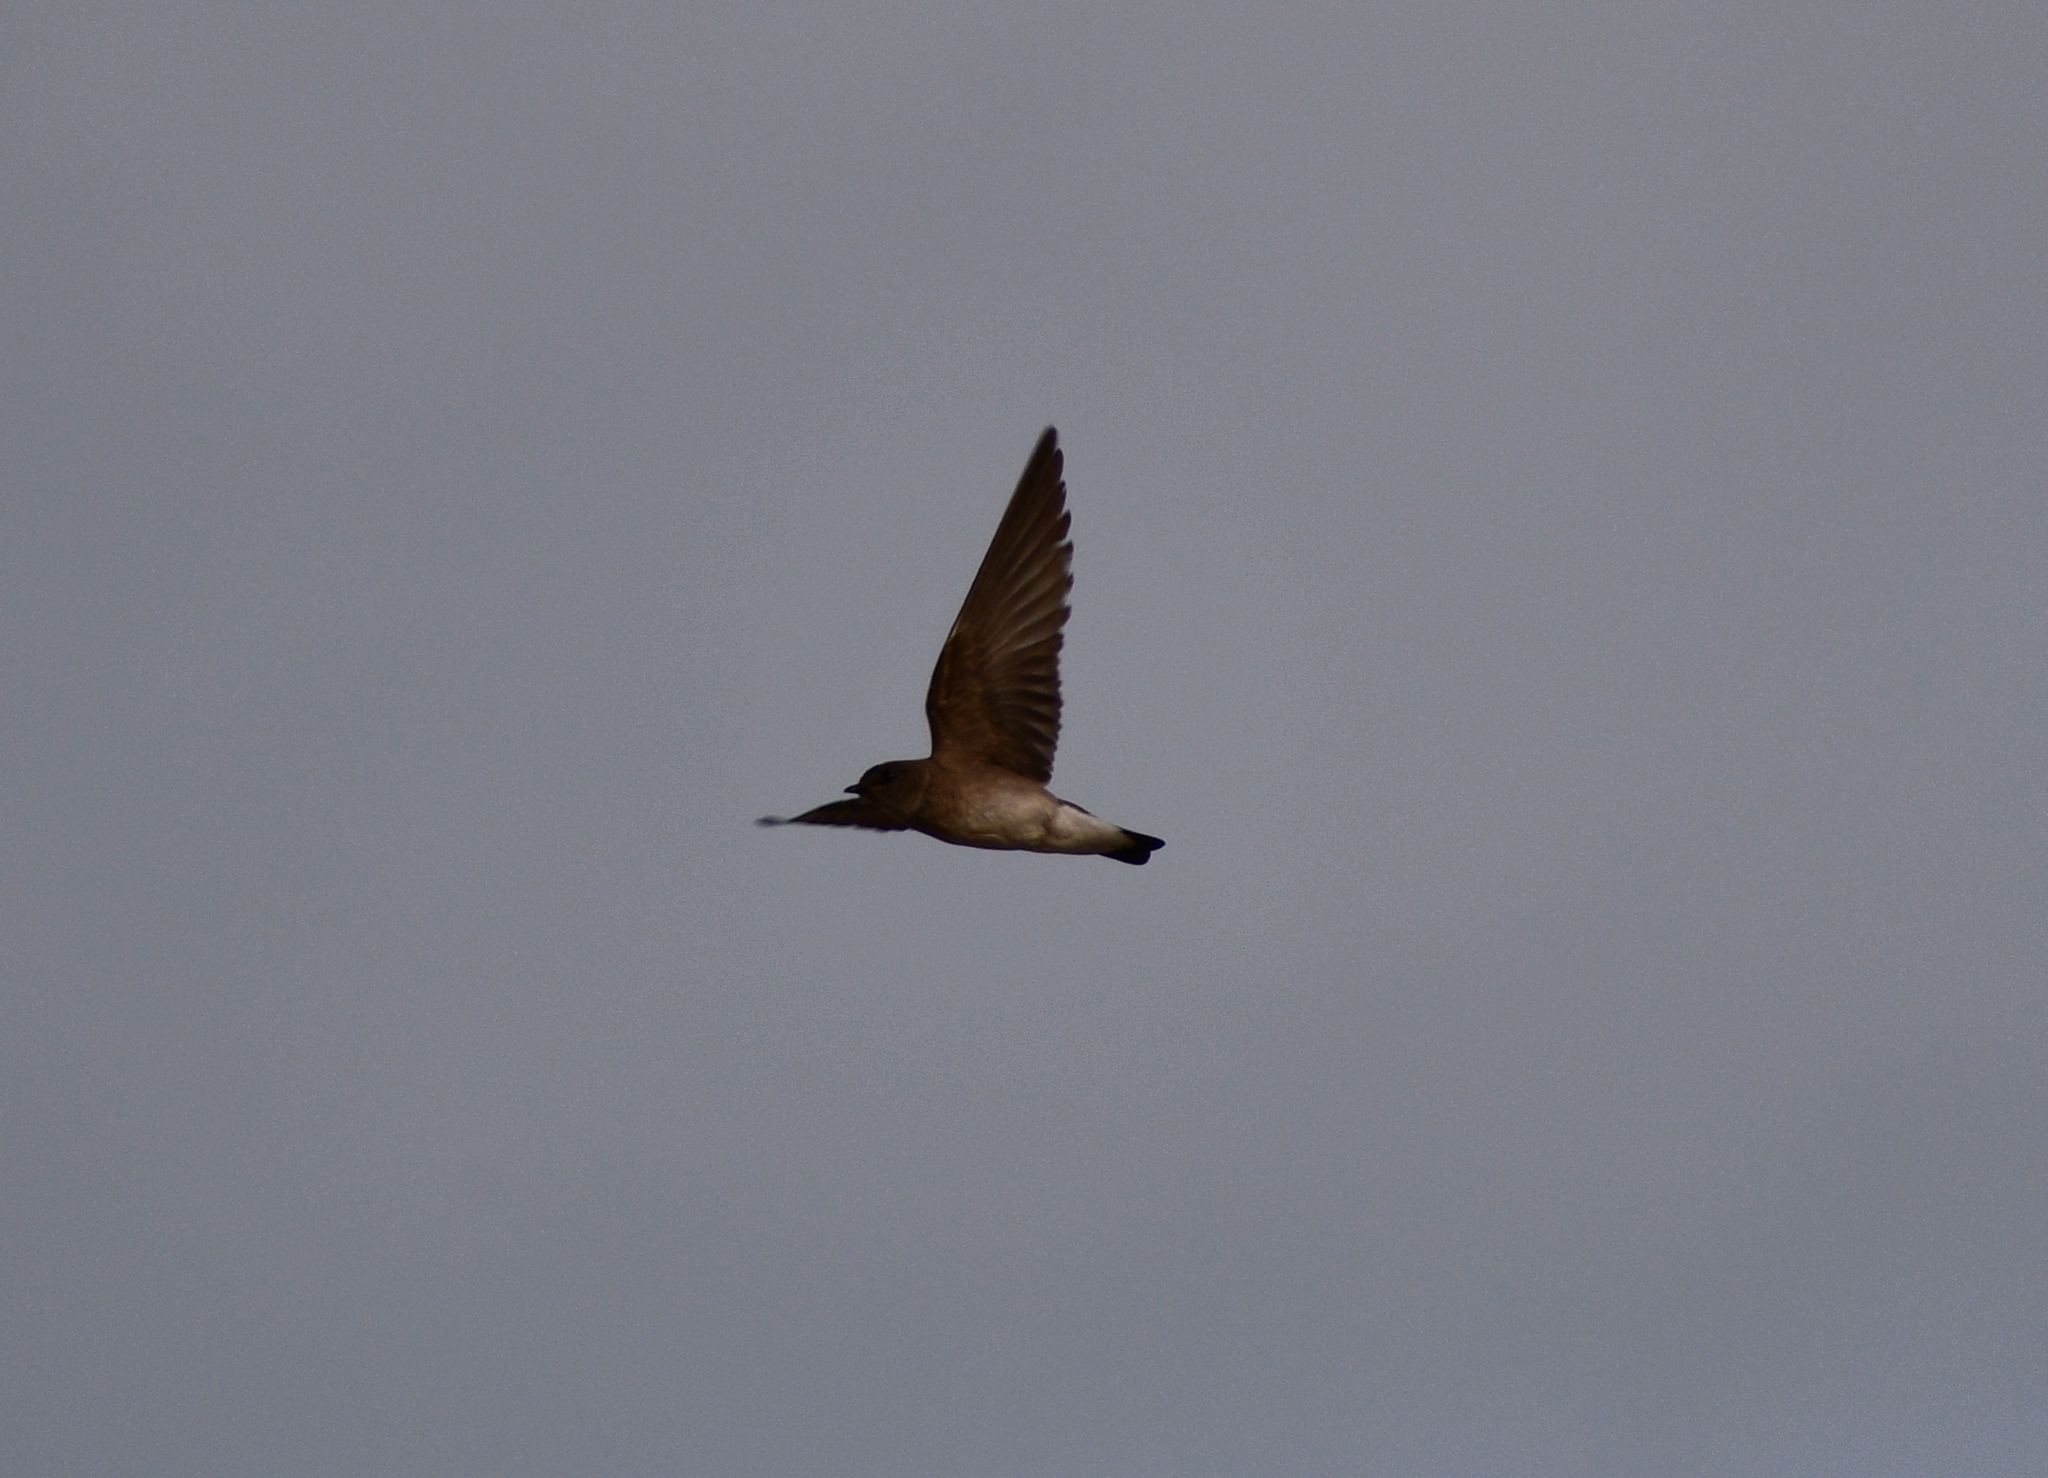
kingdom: Animalia
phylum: Chordata
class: Aves
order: Passeriformes
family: Hirundinidae
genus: Stelgidopteryx
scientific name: Stelgidopteryx serripennis
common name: Northern rough-winged swallow
